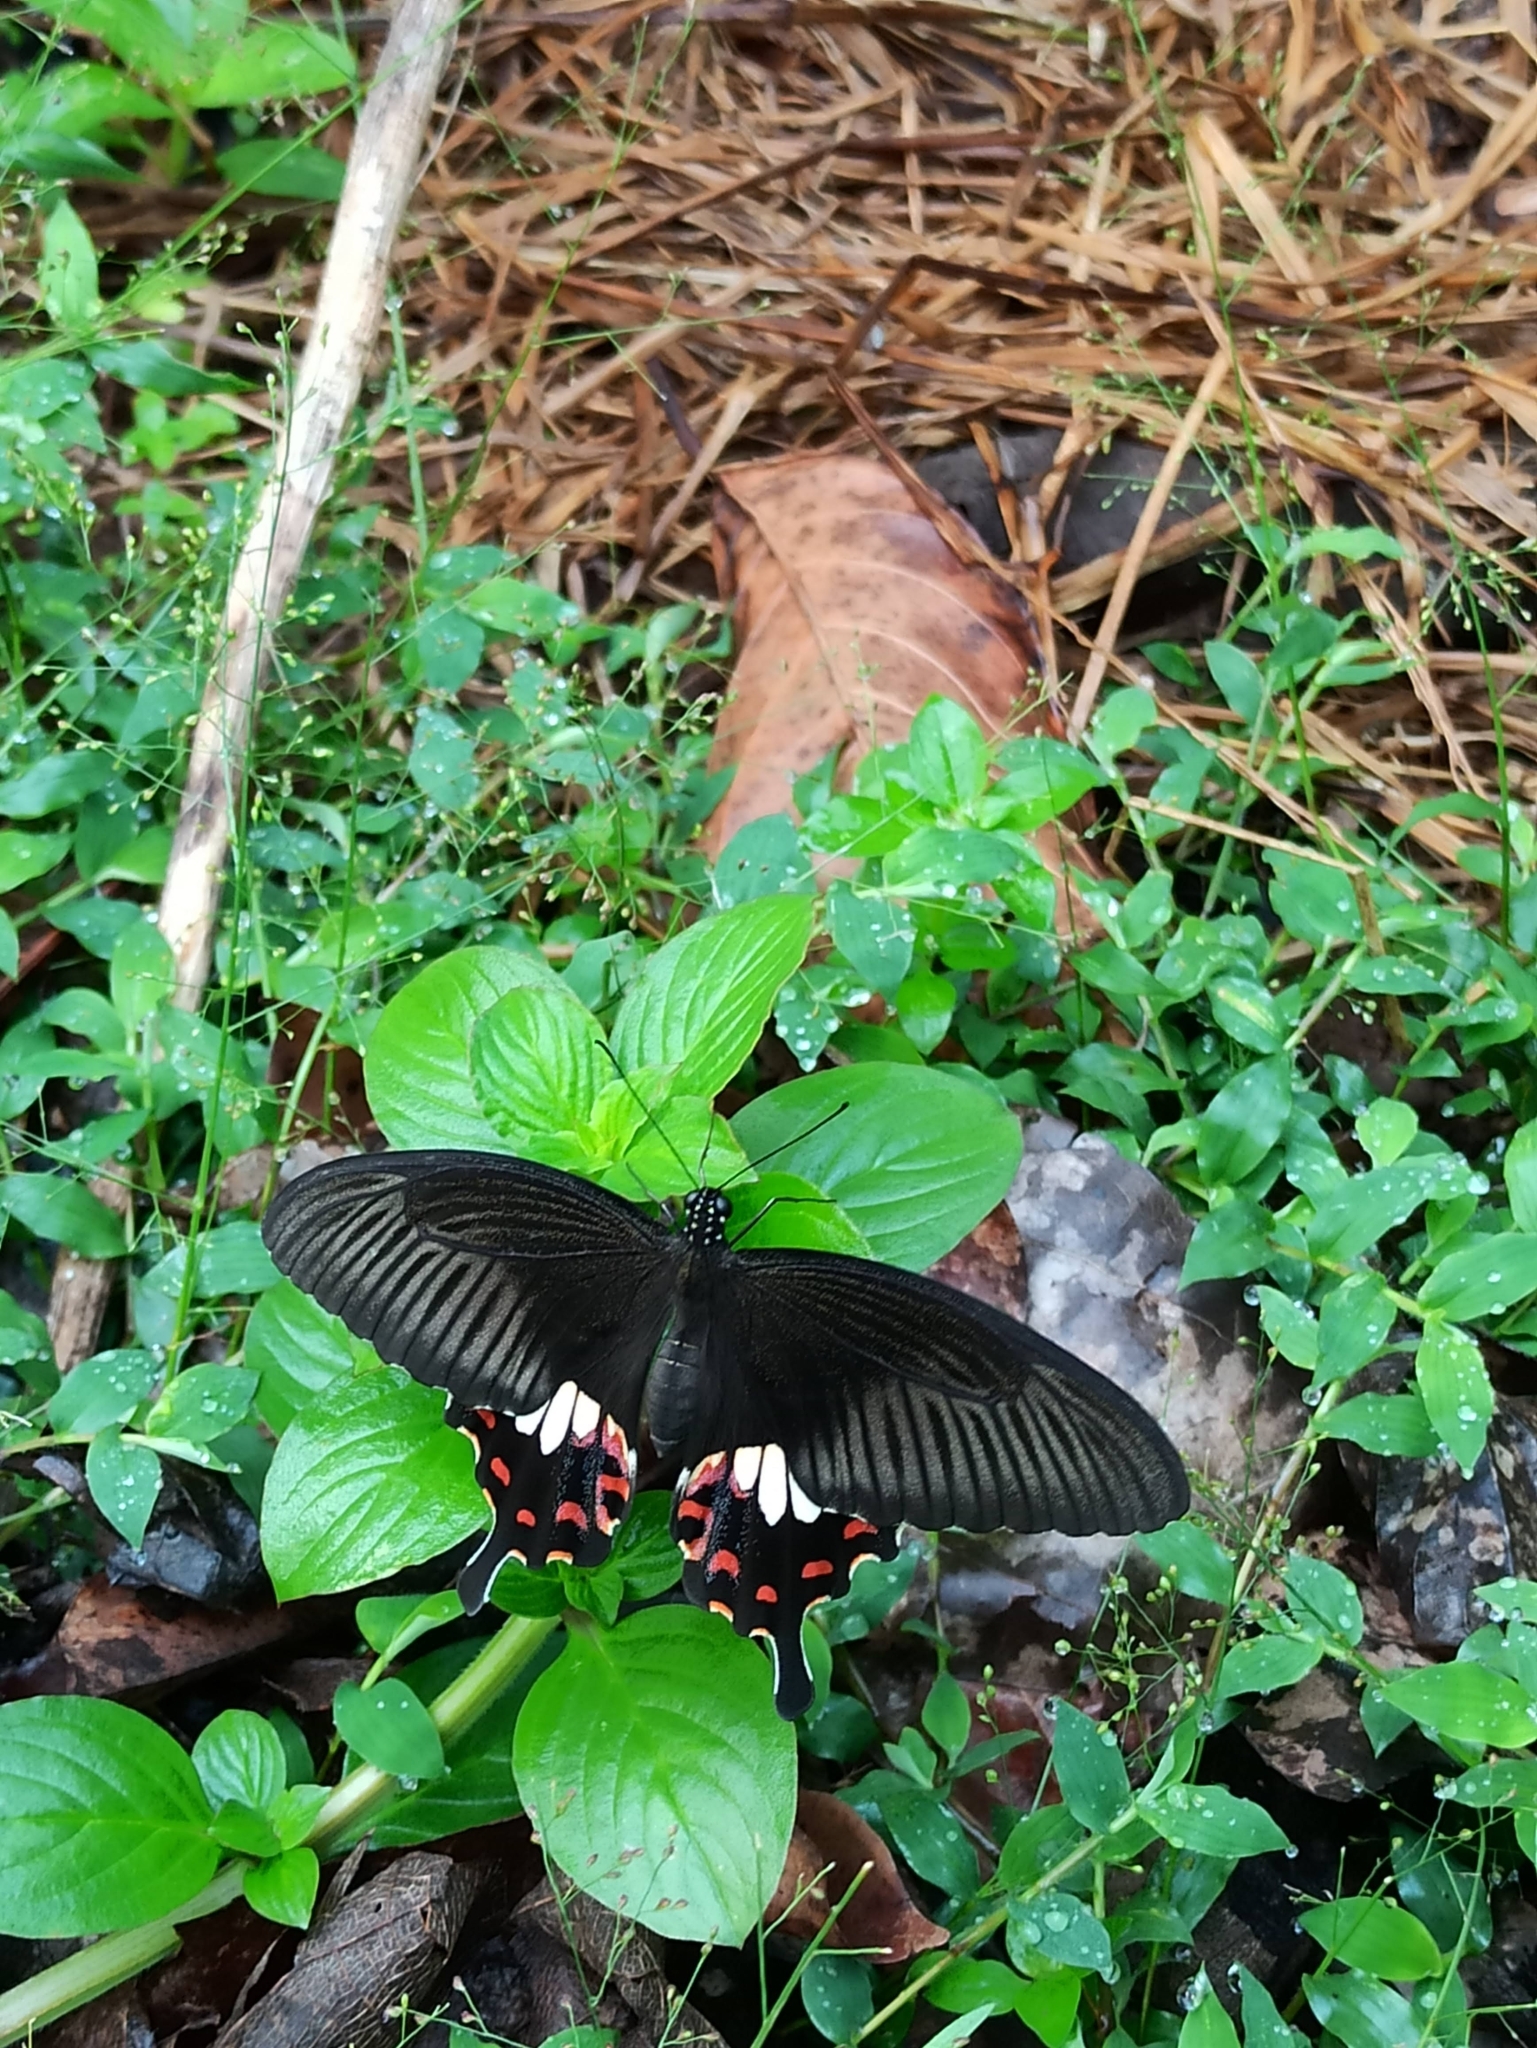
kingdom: Animalia
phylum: Arthropoda
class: Insecta
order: Lepidoptera
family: Papilionidae
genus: Papilio
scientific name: Papilio polytes
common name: Common mormon
